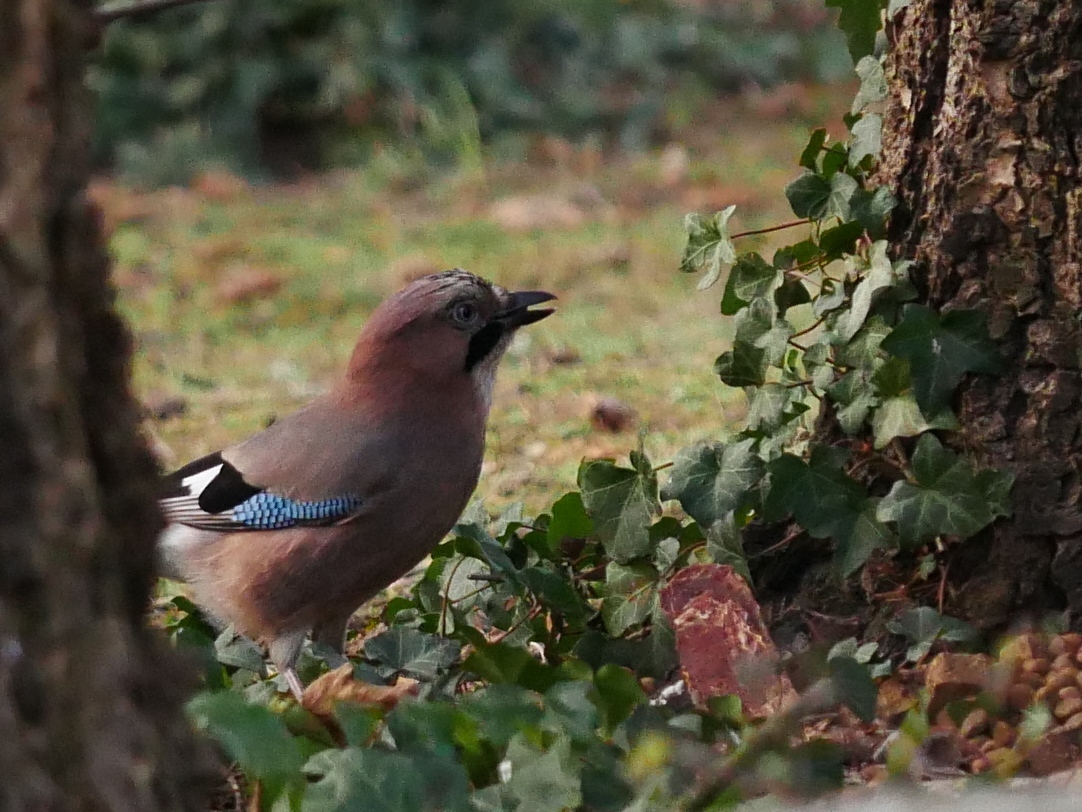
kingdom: Animalia
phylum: Chordata
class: Aves
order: Passeriformes
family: Corvidae
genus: Garrulus
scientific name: Garrulus glandarius
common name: Eurasian jay
